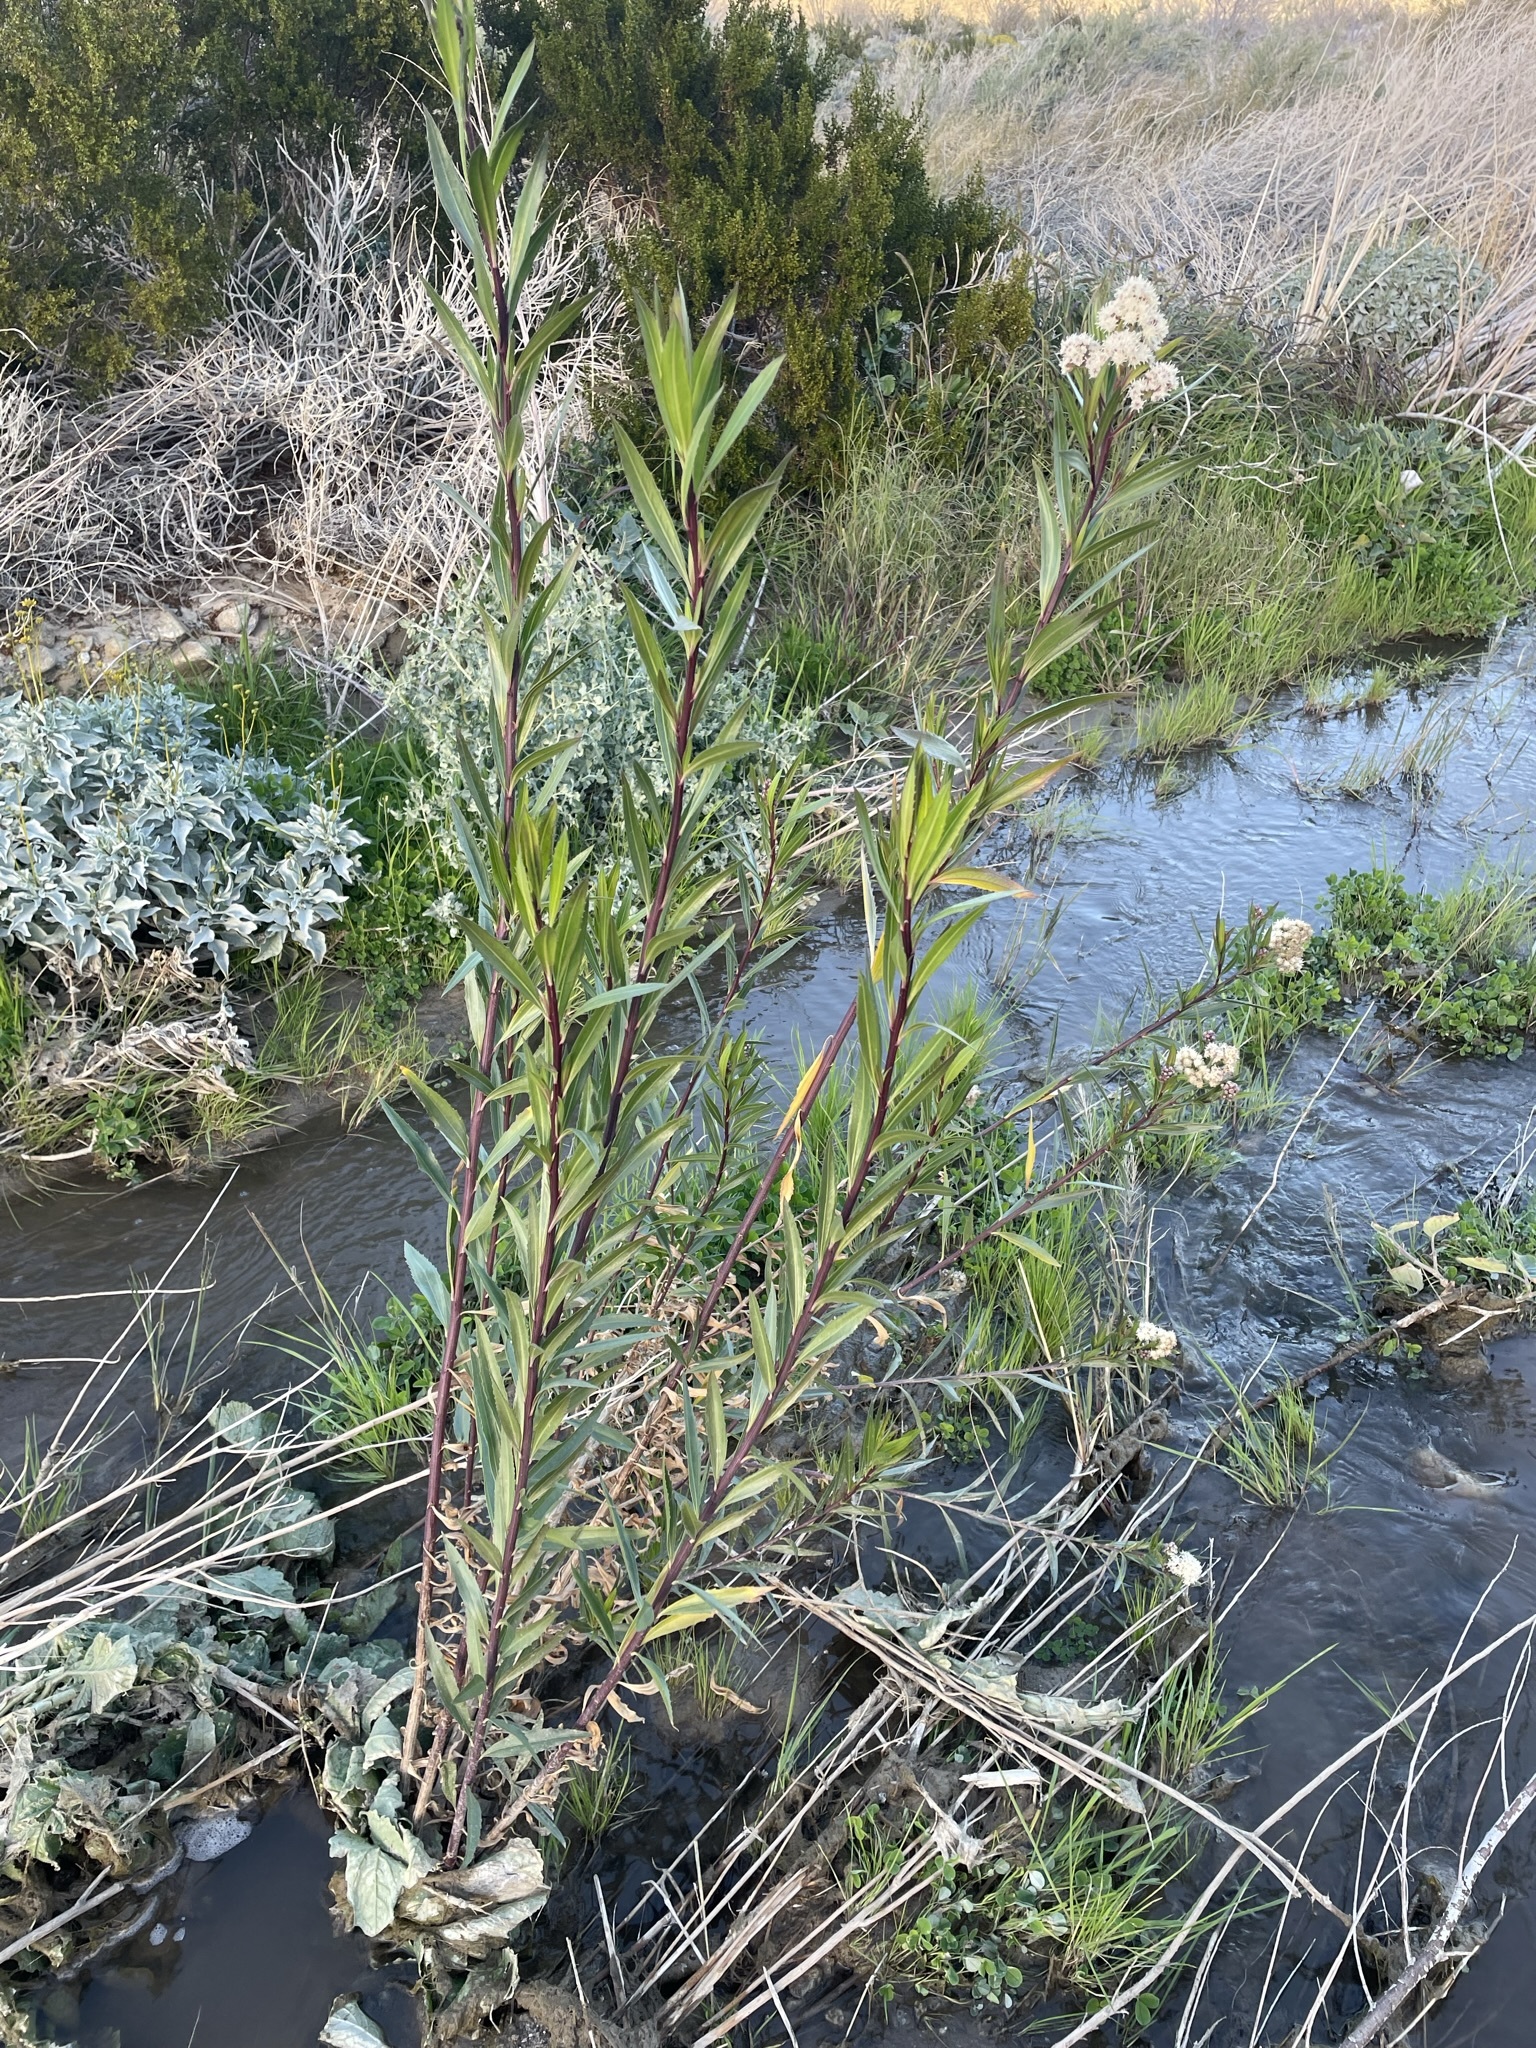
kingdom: Plantae
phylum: Tracheophyta
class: Magnoliopsida
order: Asterales
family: Asteraceae
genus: Baccharis
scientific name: Baccharis salicifolia
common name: Sticky baccharis
